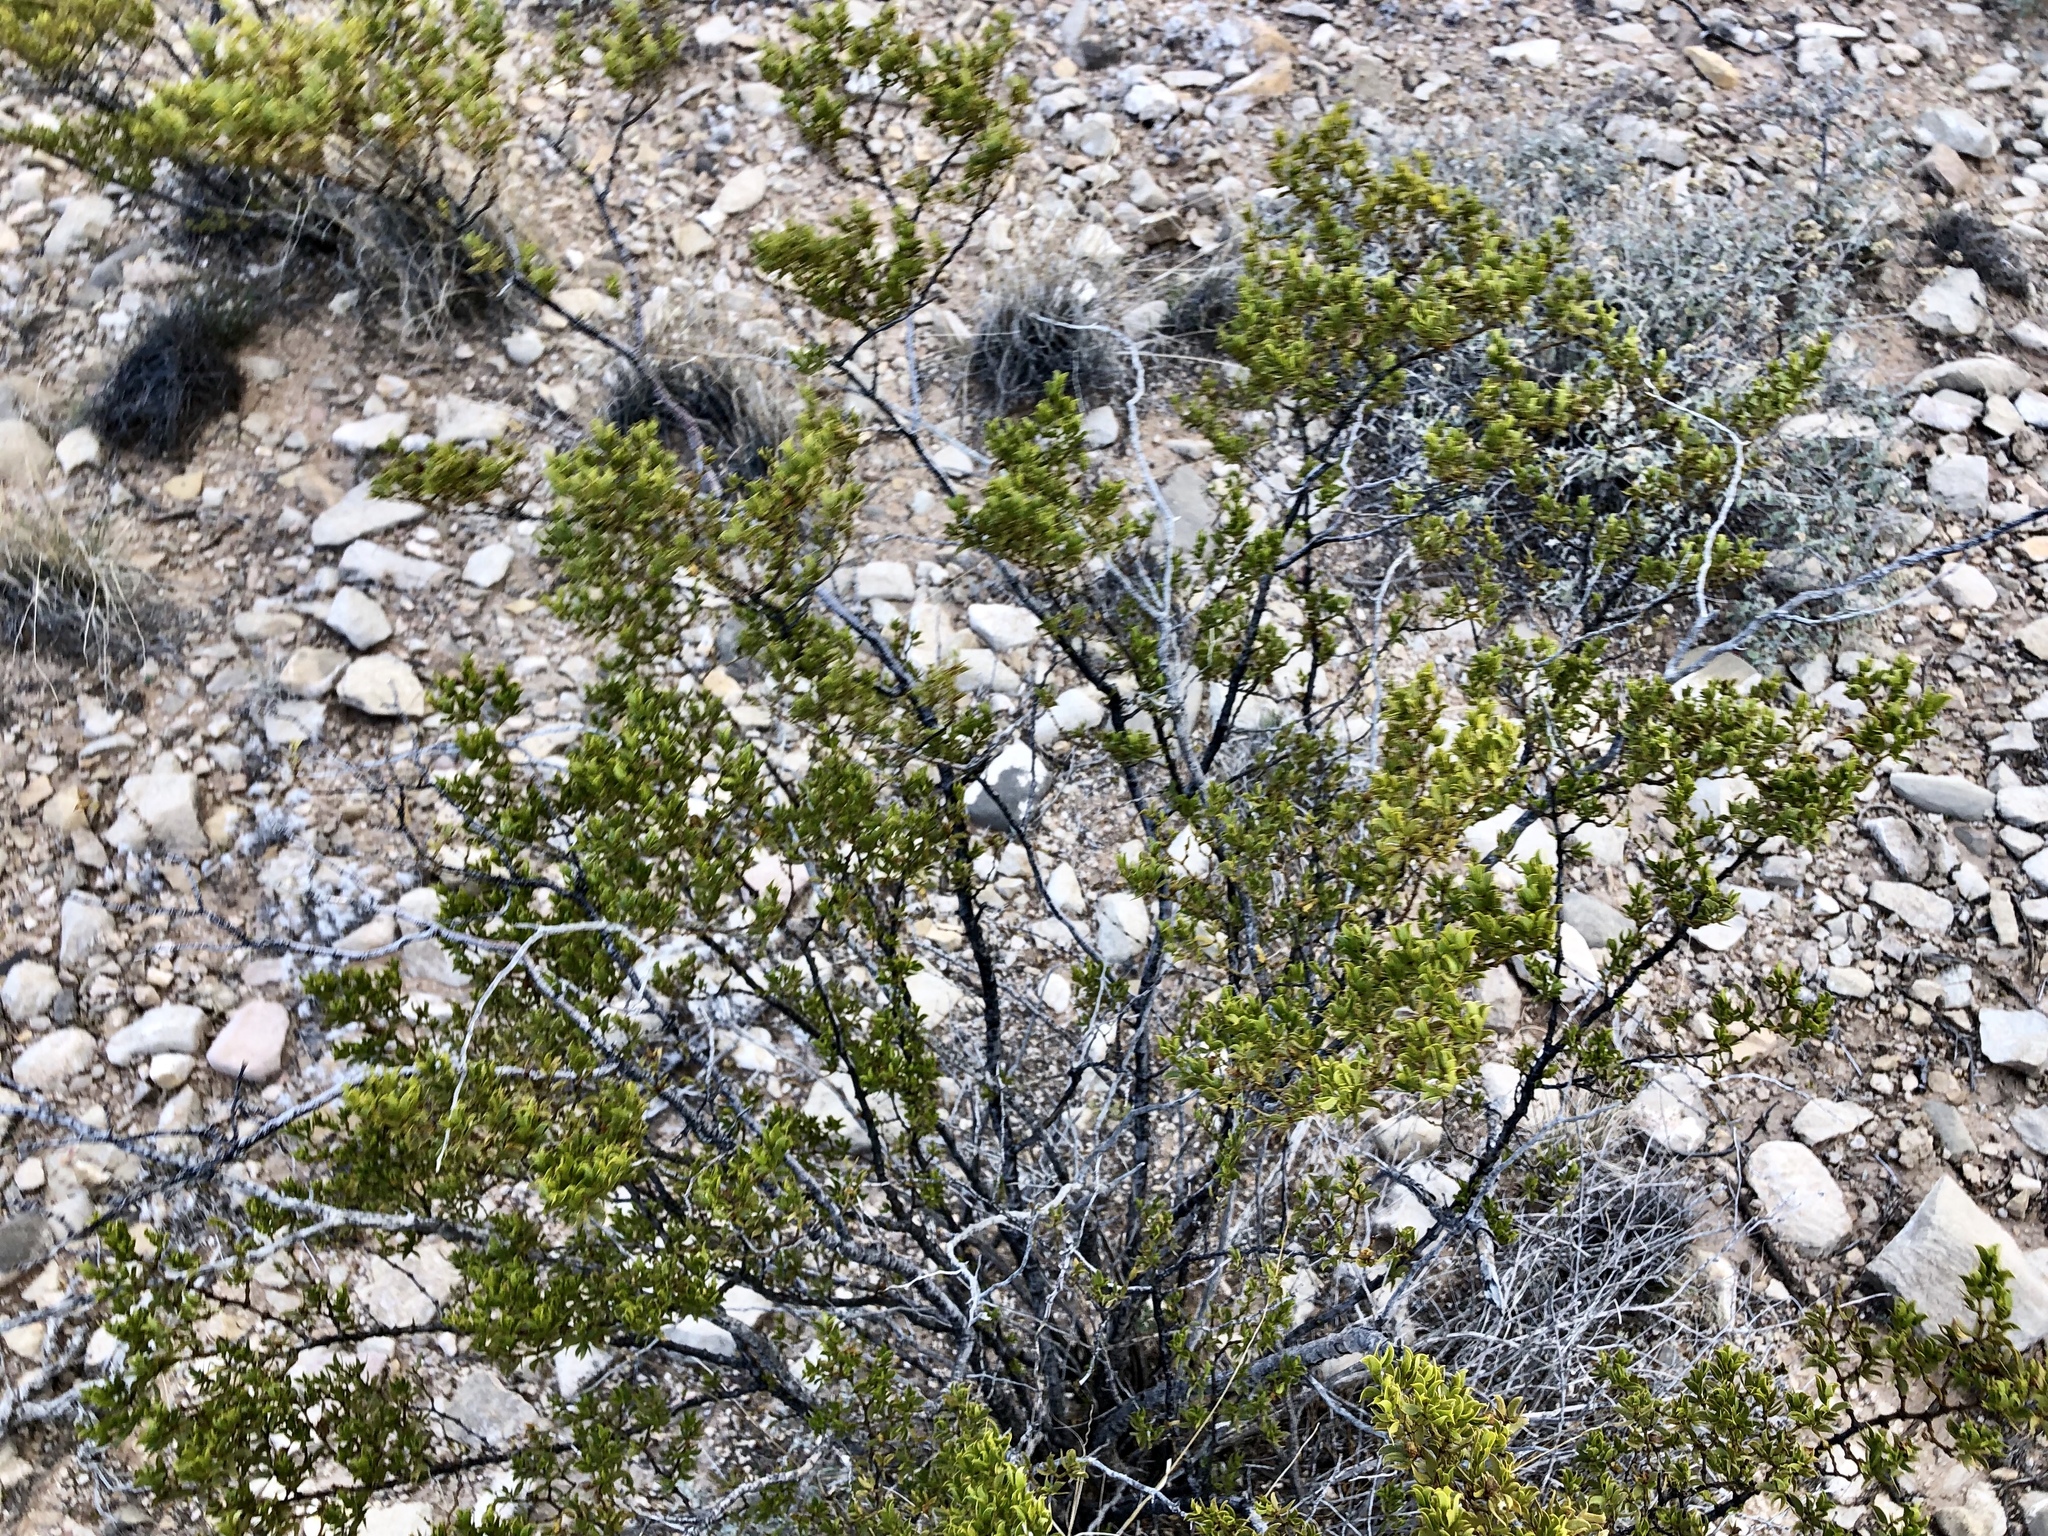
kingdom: Plantae
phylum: Tracheophyta
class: Magnoliopsida
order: Zygophyllales
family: Zygophyllaceae
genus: Larrea
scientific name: Larrea tridentata
